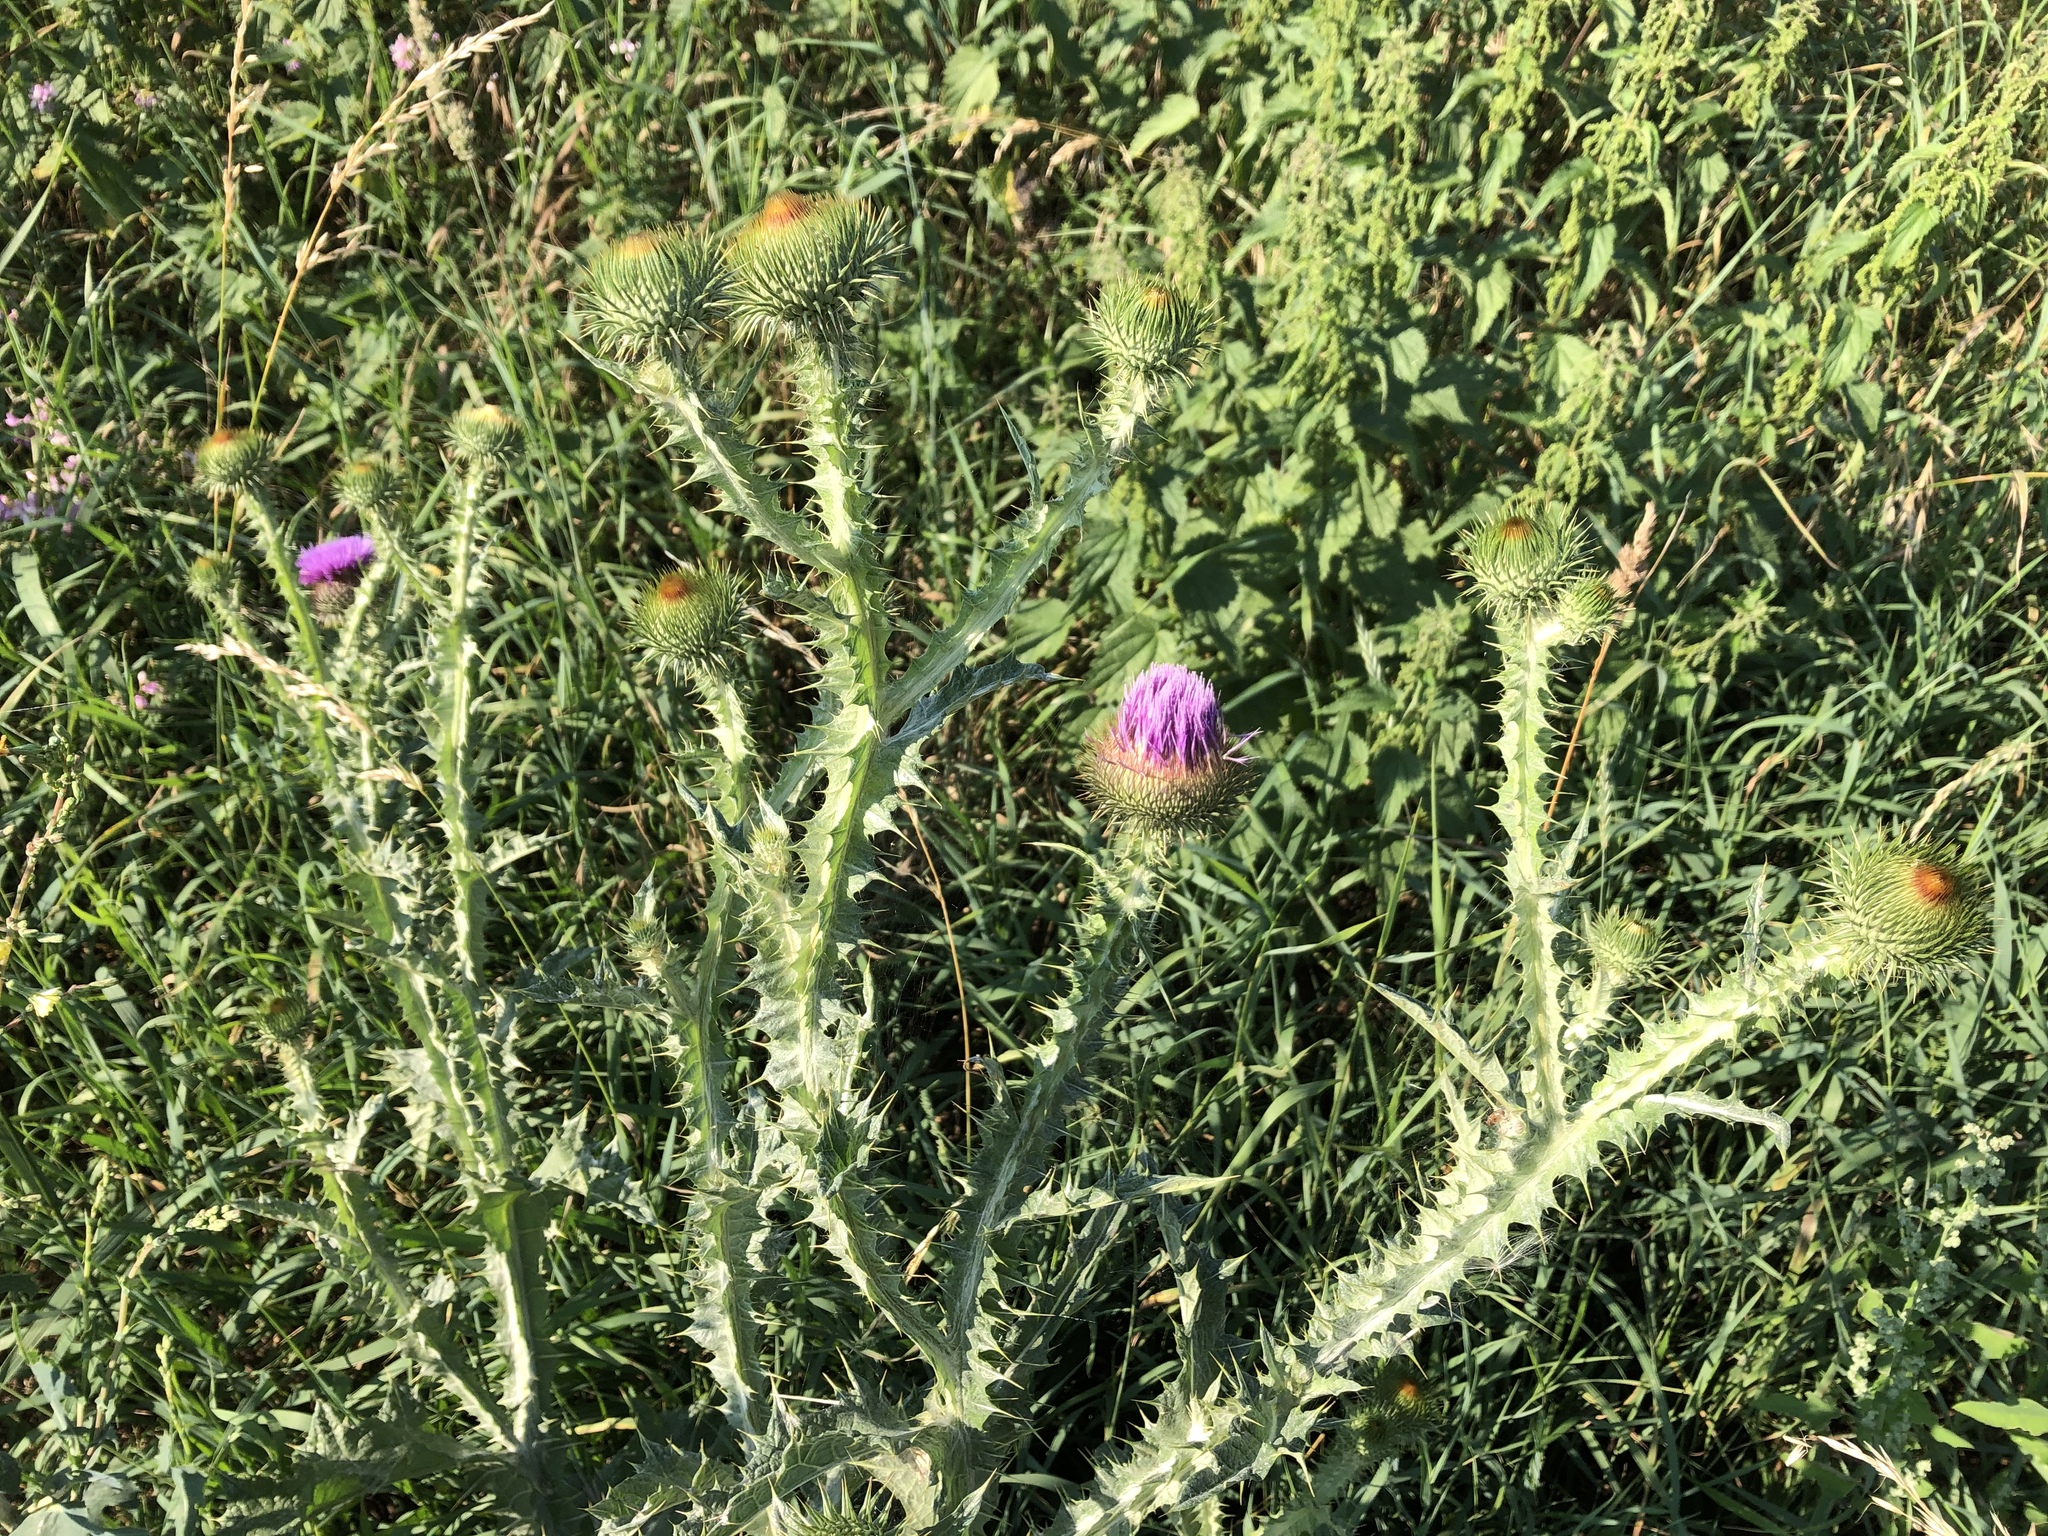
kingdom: Plantae
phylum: Tracheophyta
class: Magnoliopsida
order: Asterales
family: Asteraceae
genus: Onopordum
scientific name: Onopordum acanthium
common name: Scotch thistle
